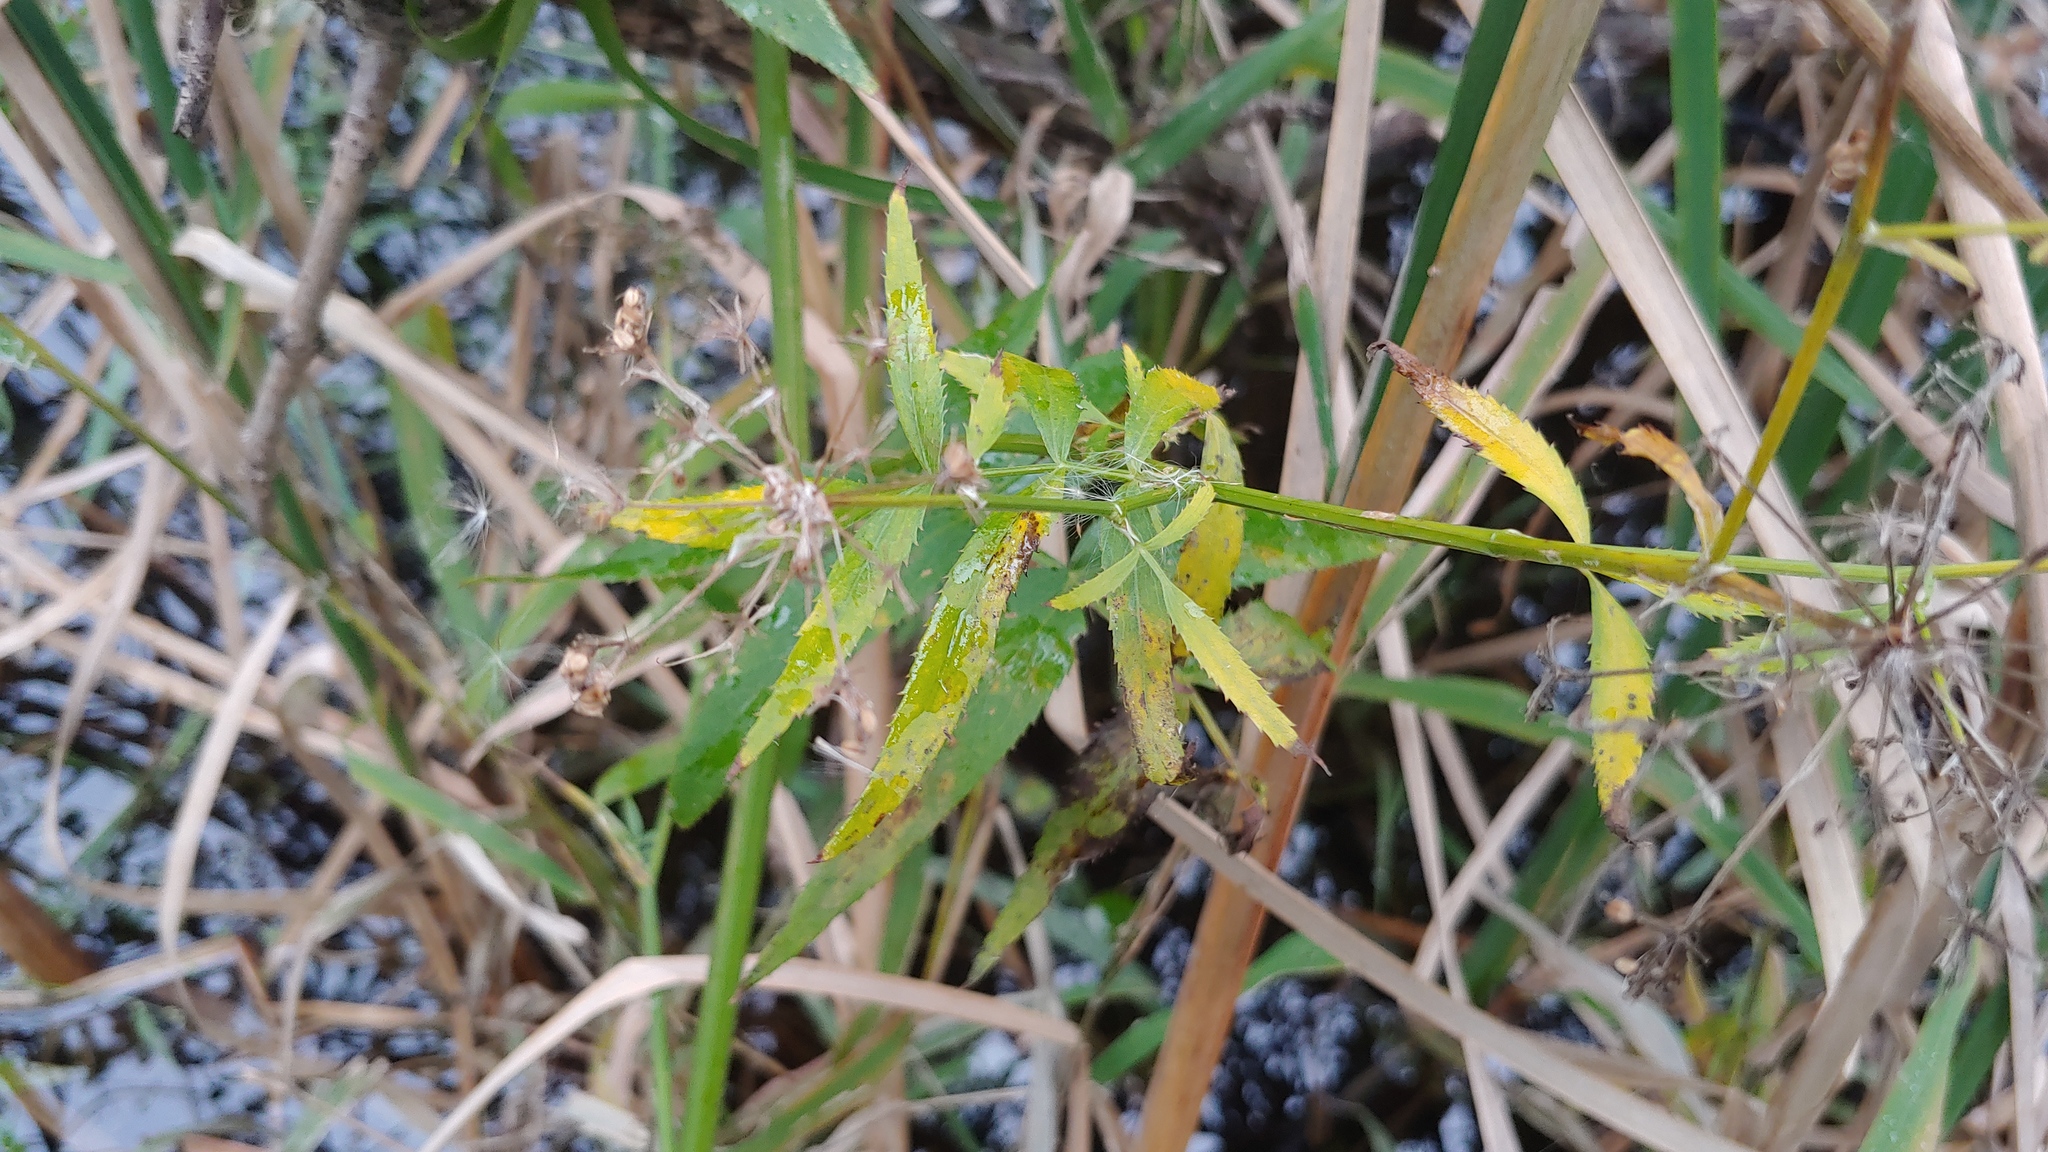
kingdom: Plantae
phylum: Tracheophyta
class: Magnoliopsida
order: Apiales
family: Apiaceae
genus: Sium
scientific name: Sium suave
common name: Hemlock water-parsnip
